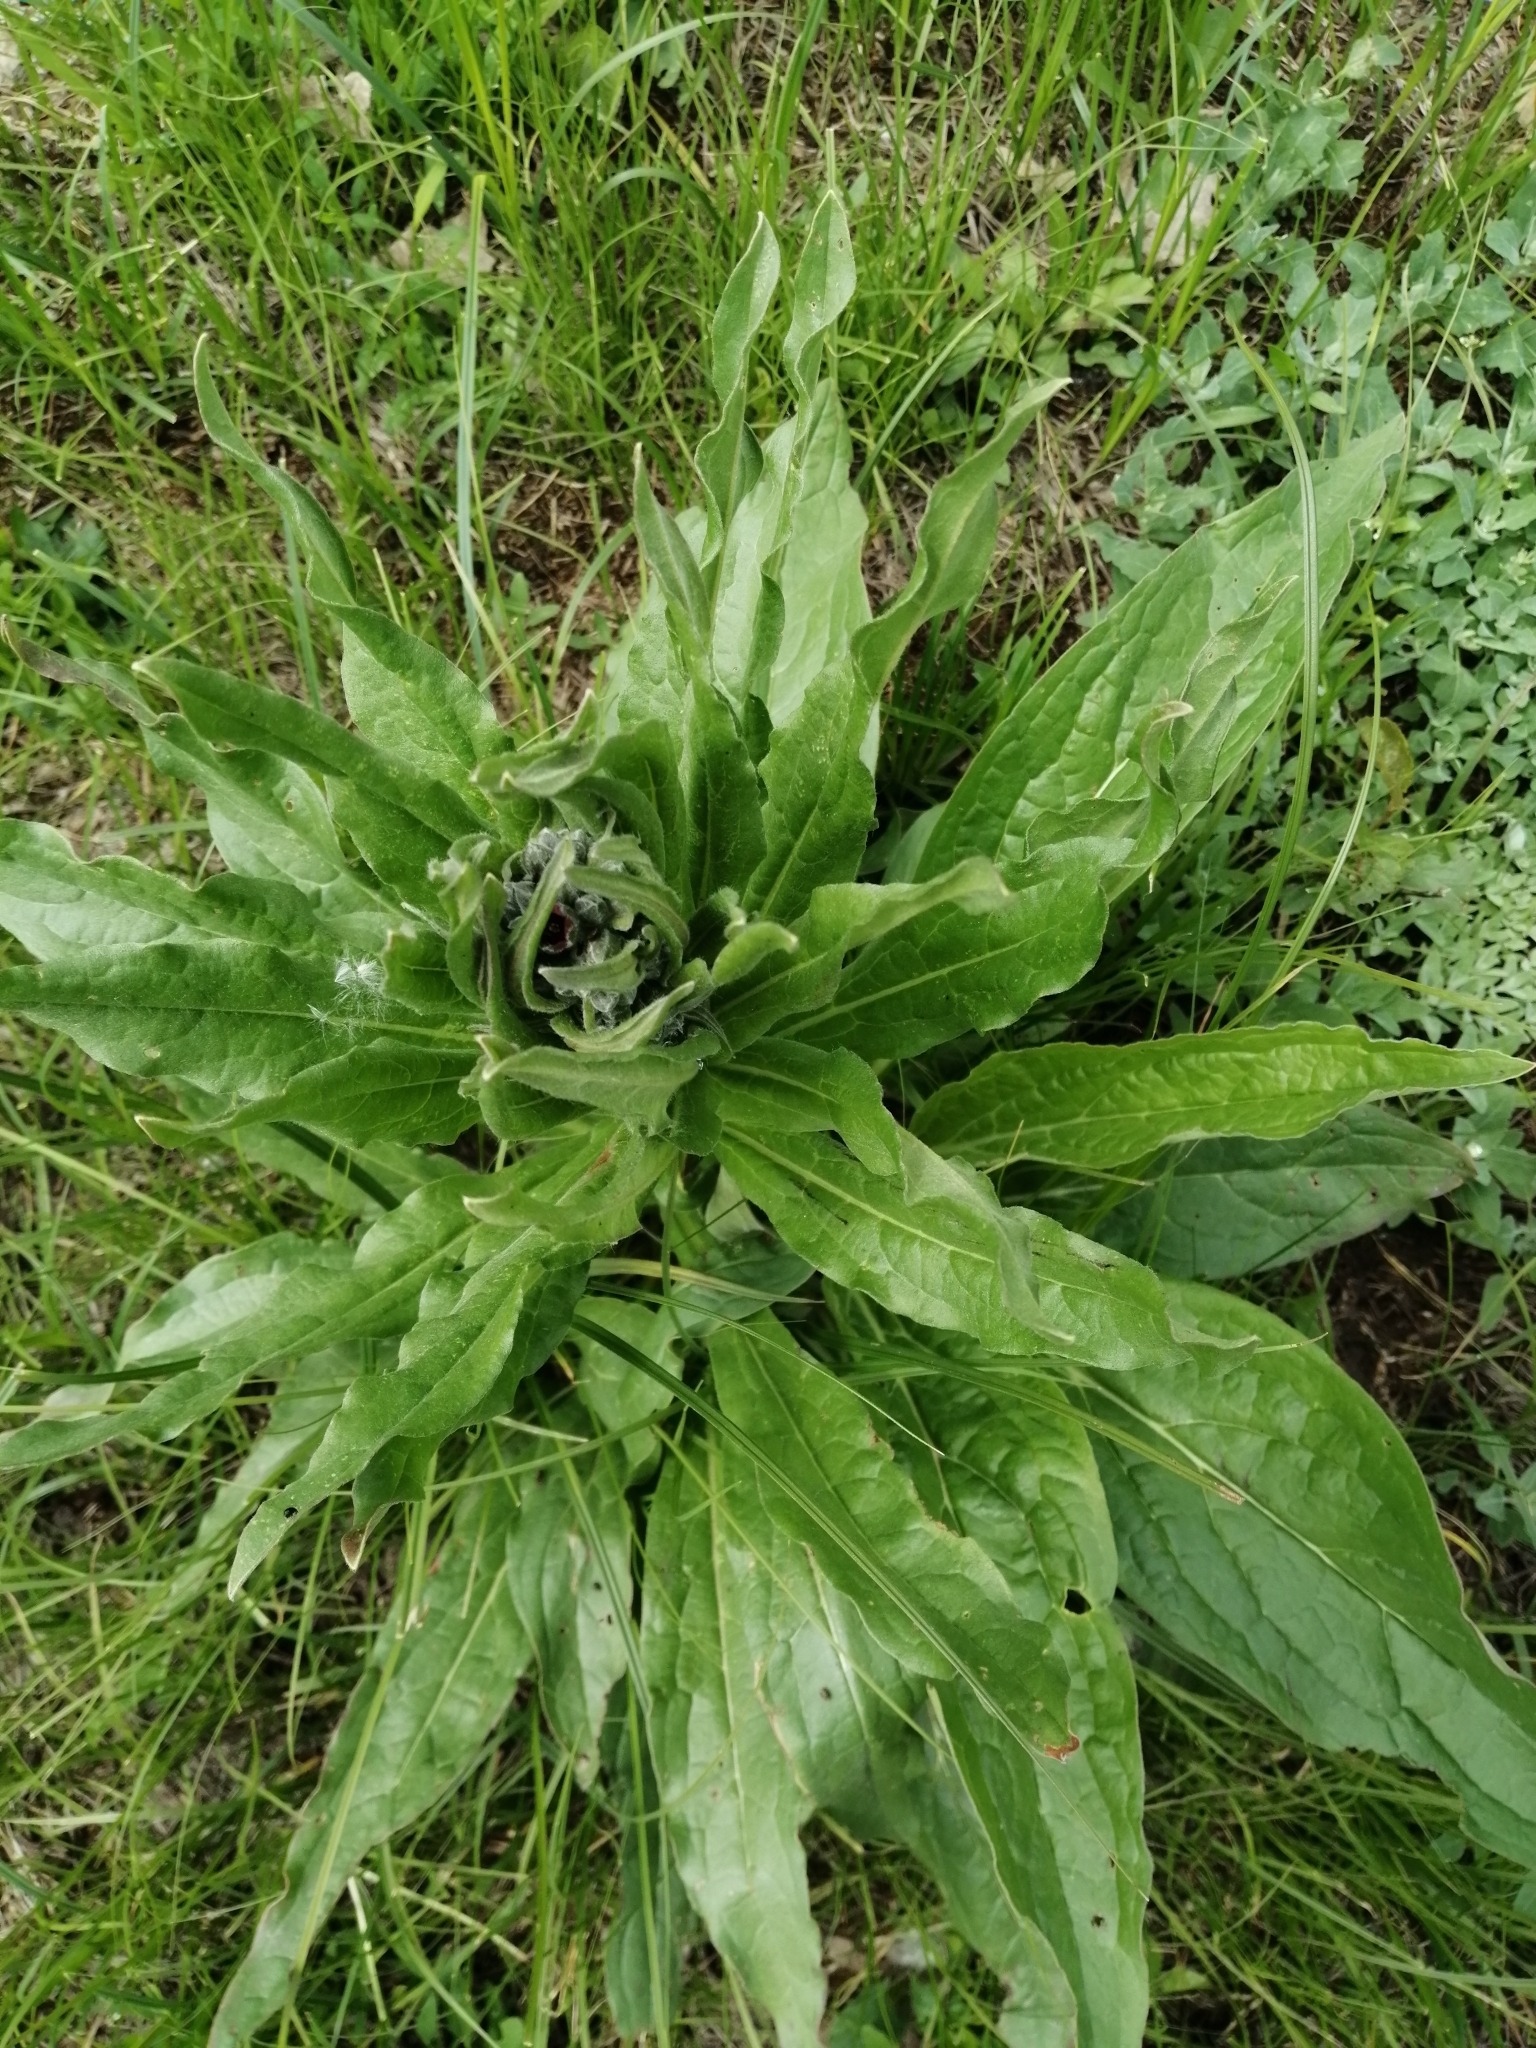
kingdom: Plantae
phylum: Tracheophyta
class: Magnoliopsida
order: Boraginales
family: Boraginaceae
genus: Cynoglossum
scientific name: Cynoglossum officinale
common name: Hound's-tongue
